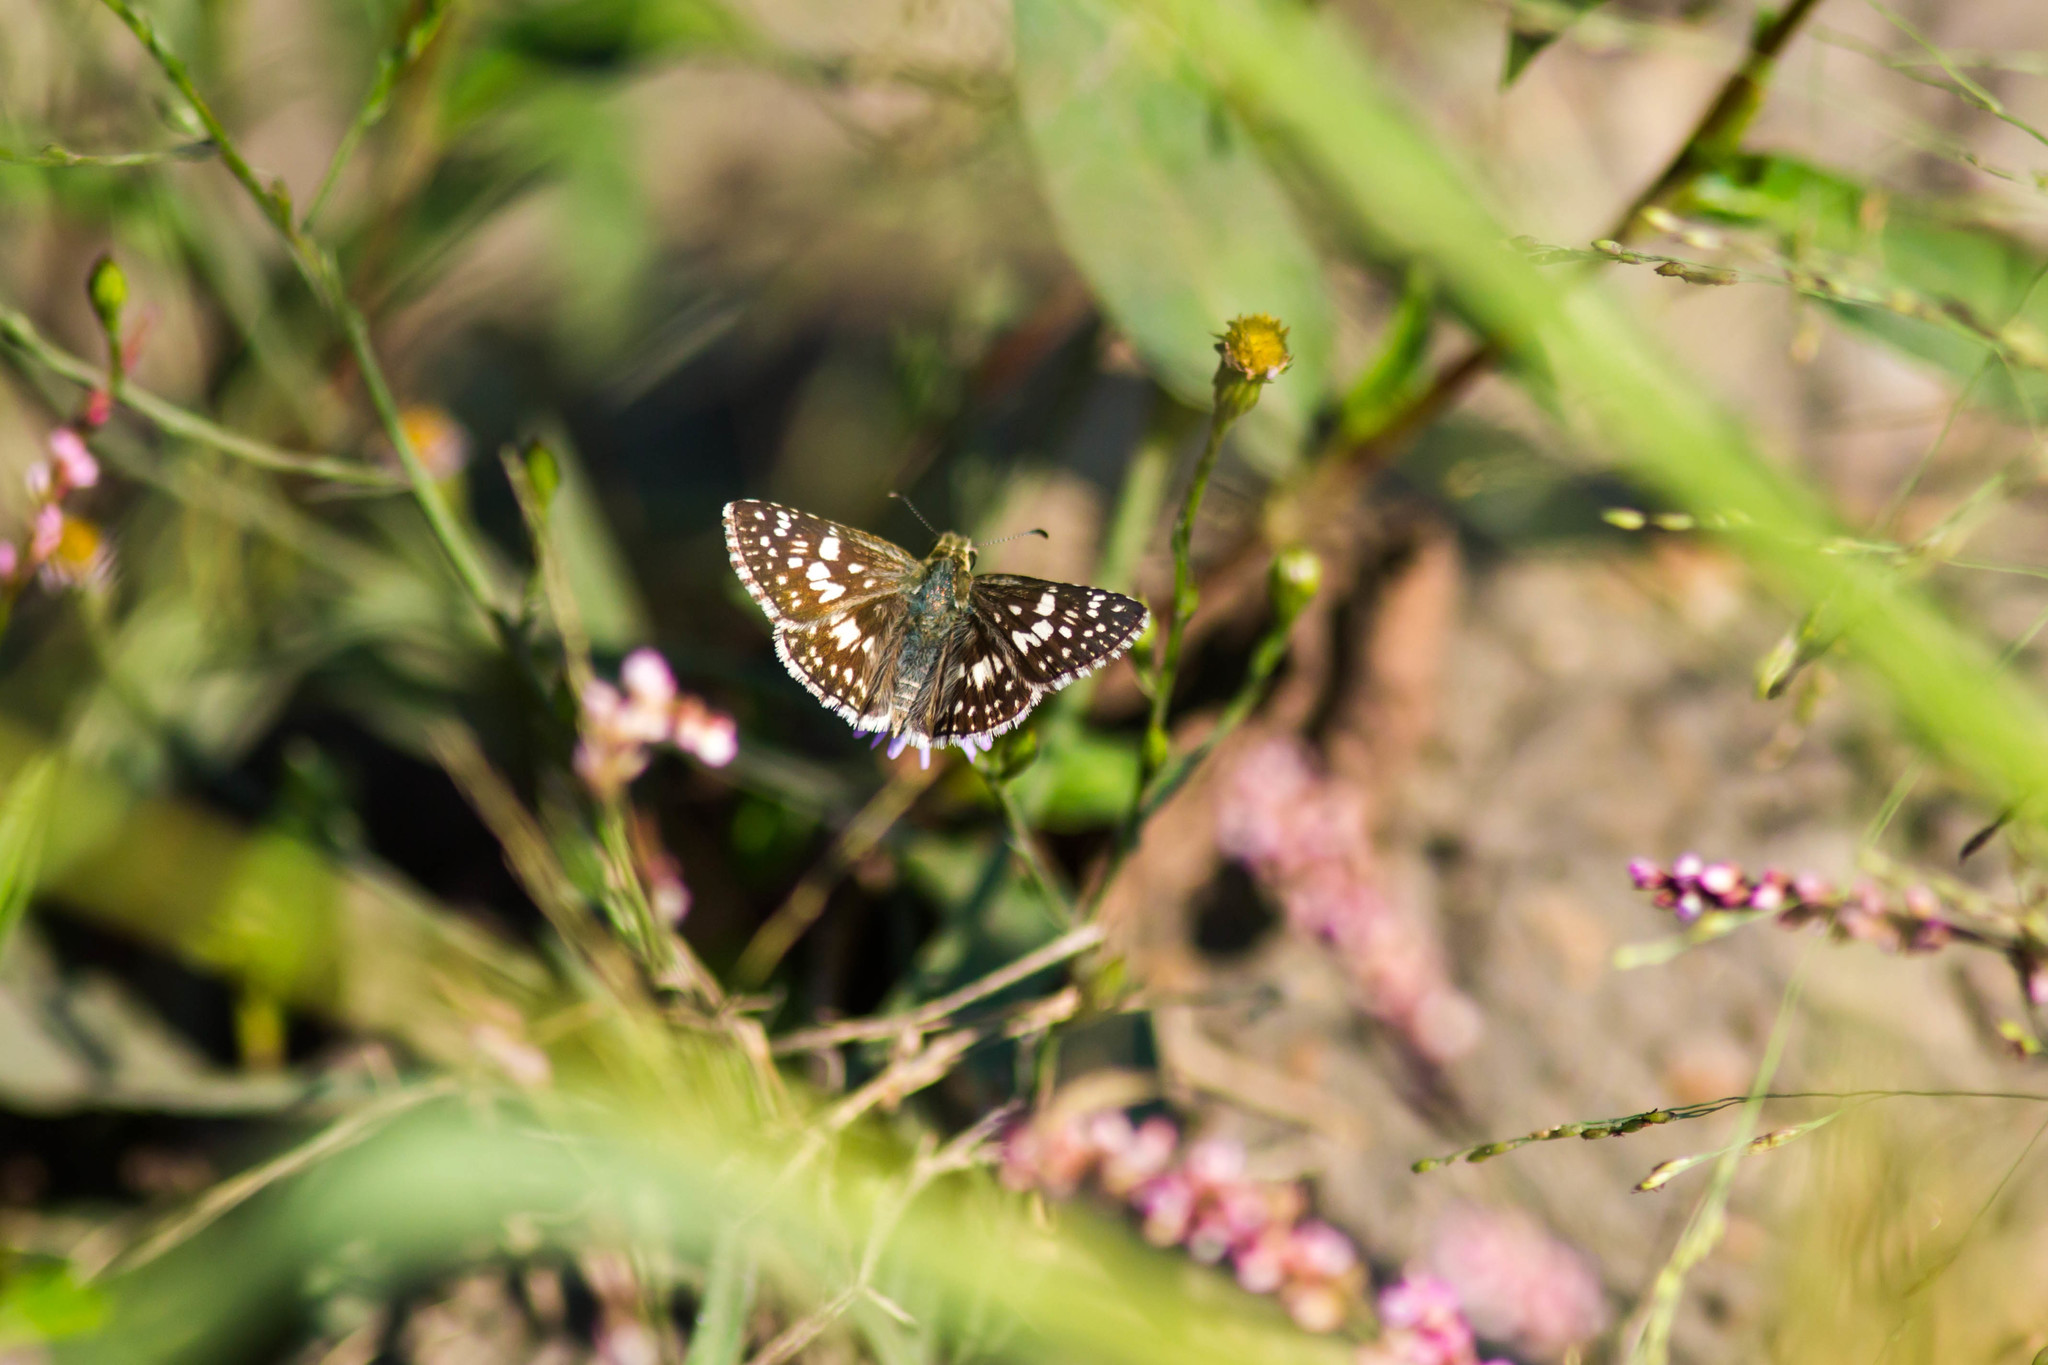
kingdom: Animalia
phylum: Arthropoda
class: Insecta
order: Lepidoptera
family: Hesperiidae
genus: Burnsius
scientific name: Burnsius communis
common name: Common checkered-skipper
